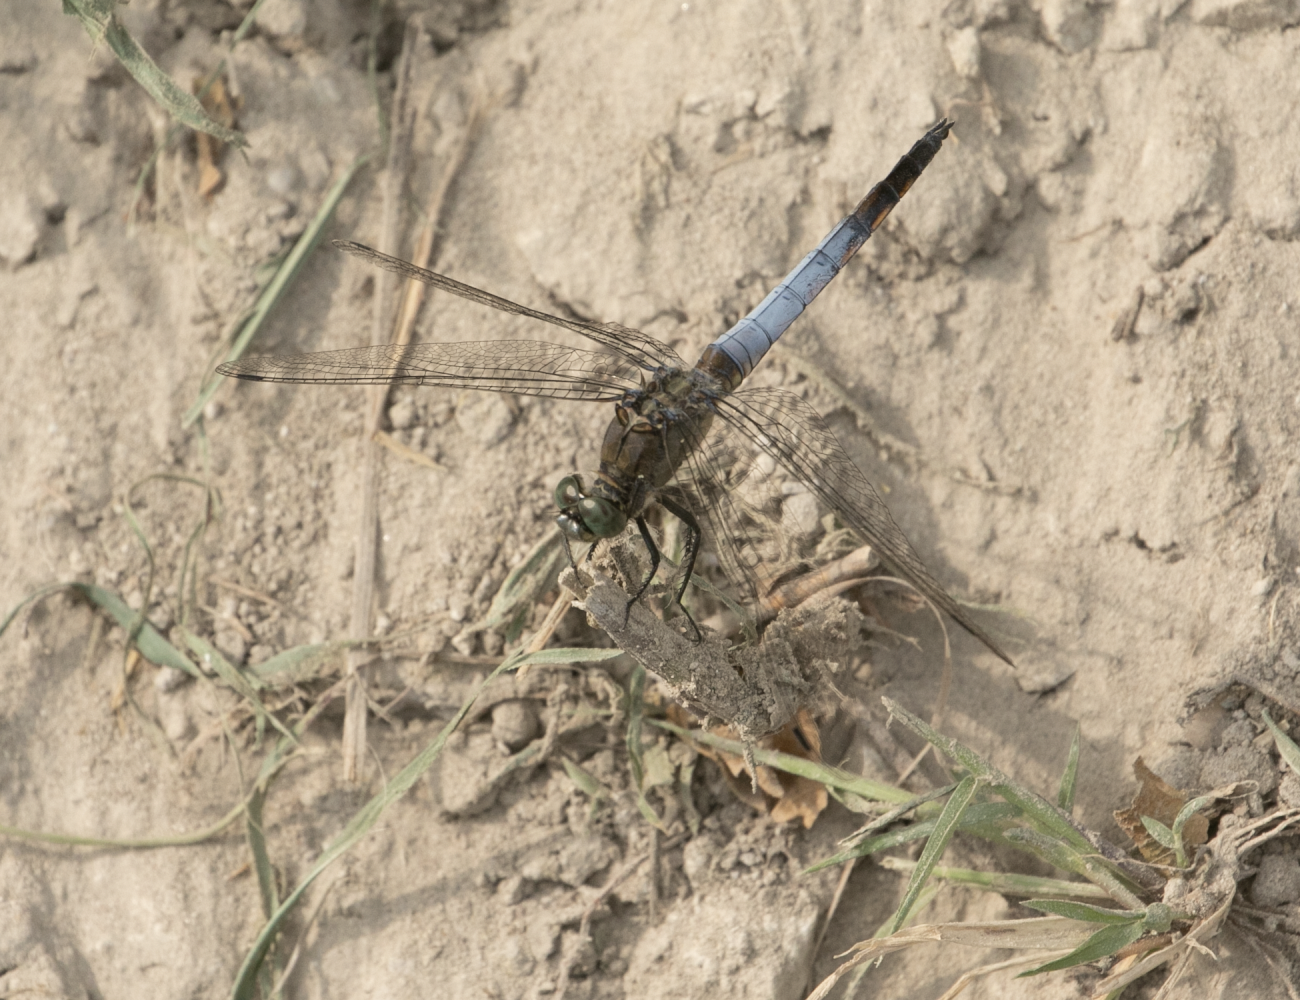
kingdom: Animalia
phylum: Arthropoda
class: Insecta
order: Odonata
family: Libellulidae
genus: Orthetrum
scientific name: Orthetrum cancellatum
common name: Black-tailed skimmer
